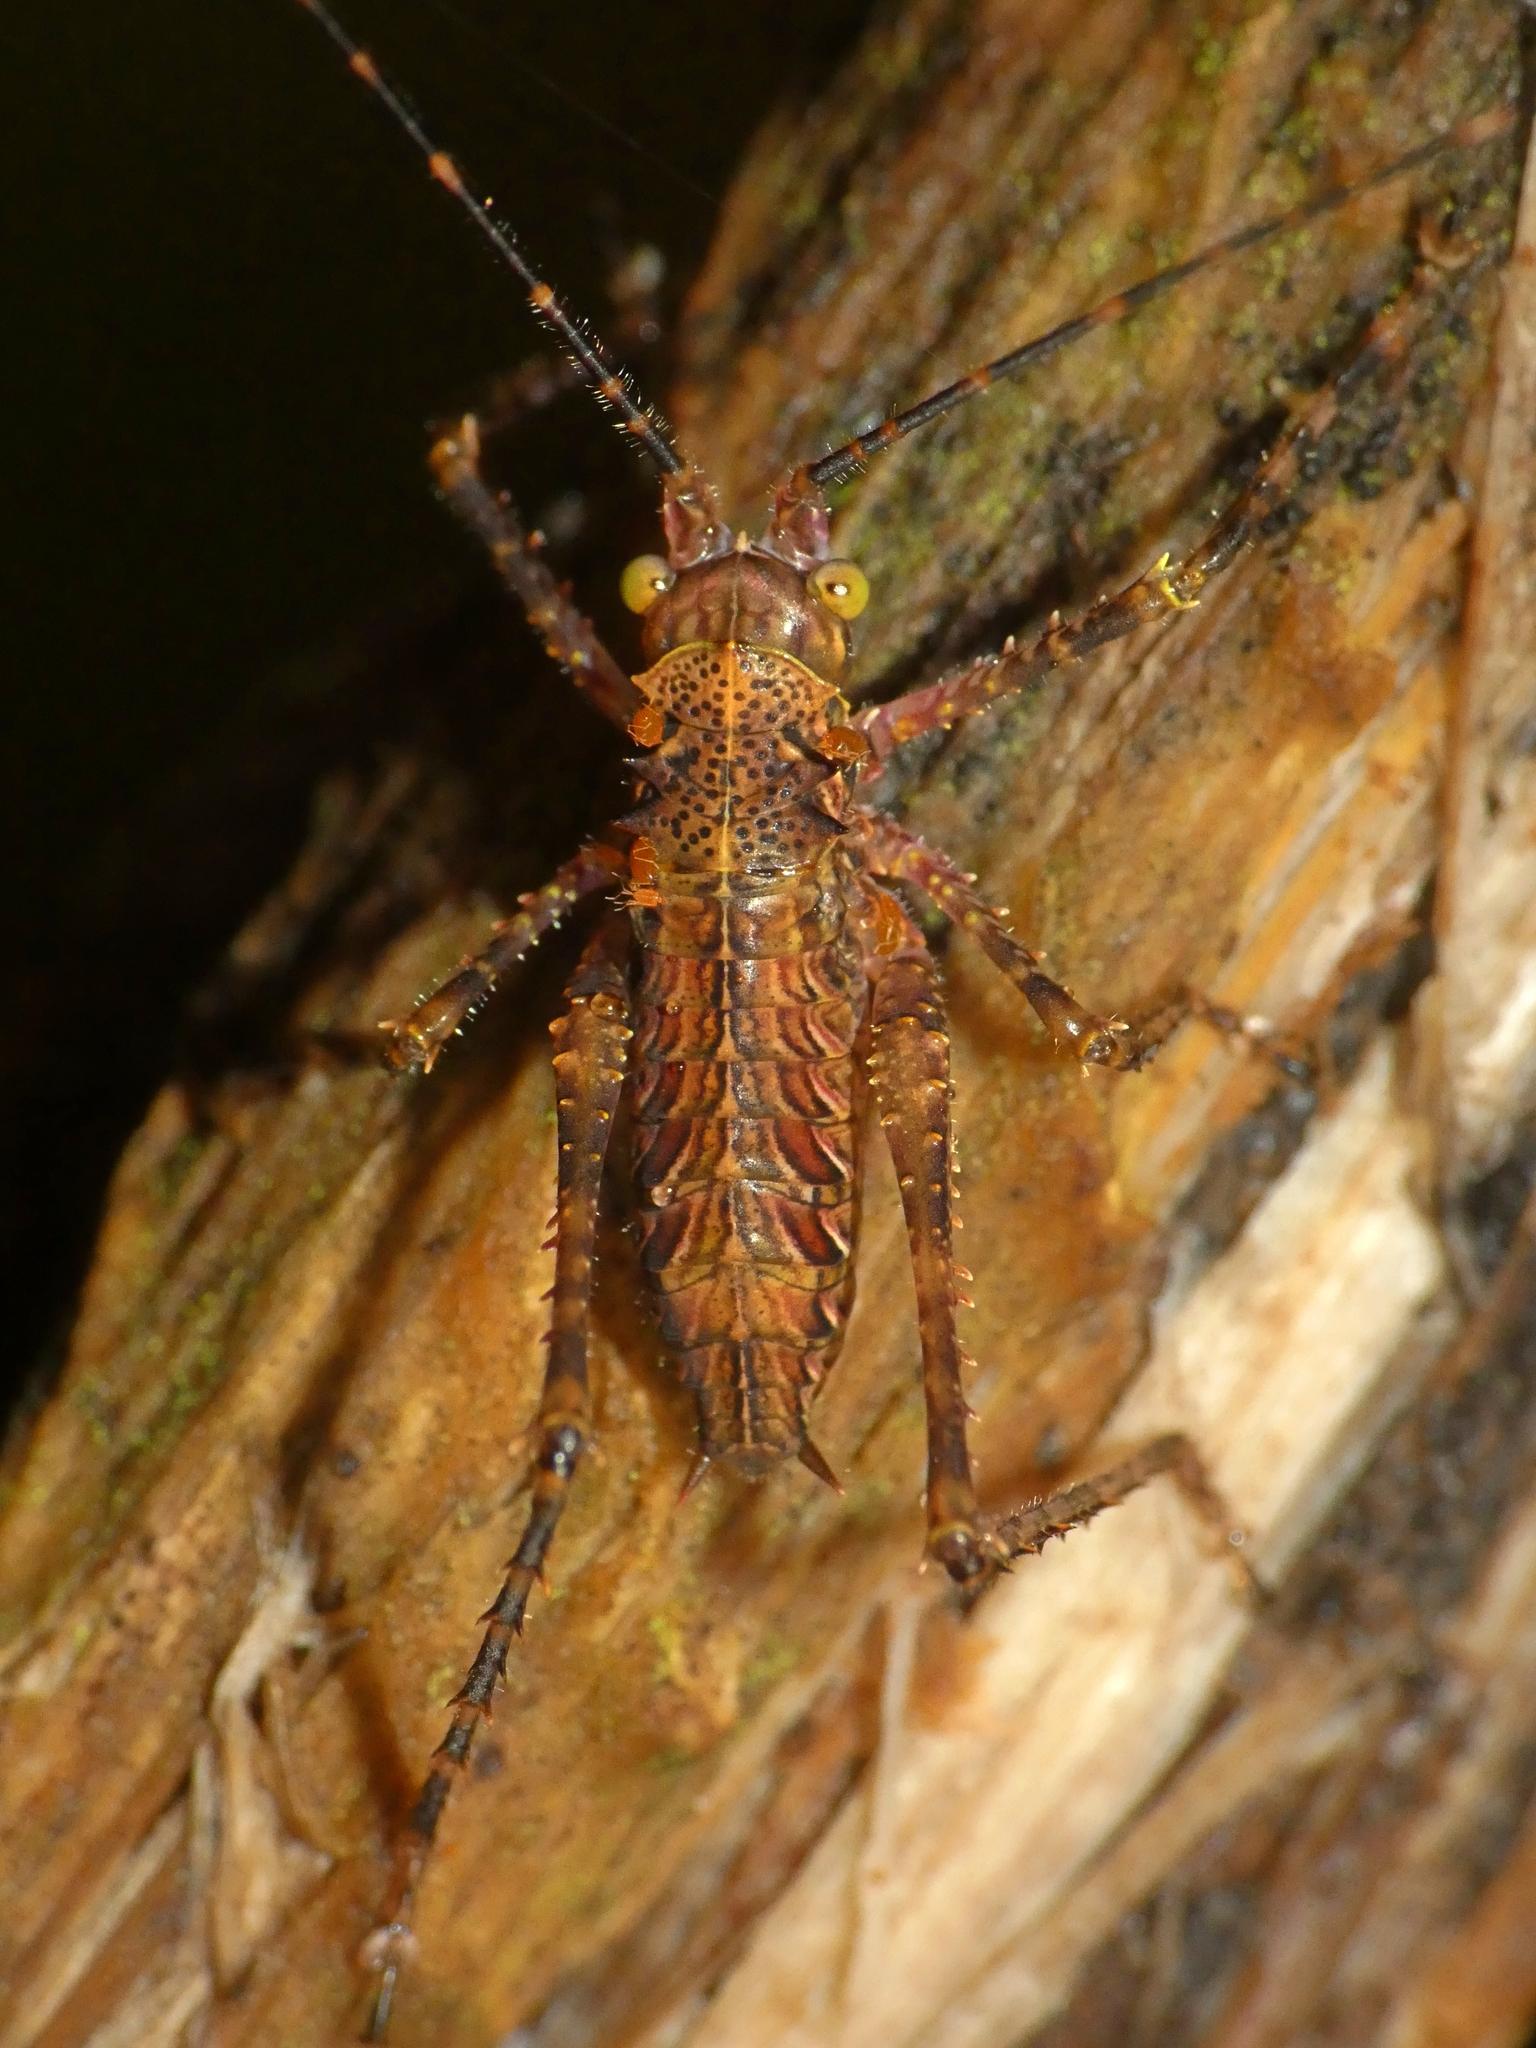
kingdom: Animalia
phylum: Arthropoda
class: Insecta
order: Orthoptera
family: Tettigoniidae
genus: Phricta
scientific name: Phricta spinosa
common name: Giant spiny forest katydid
